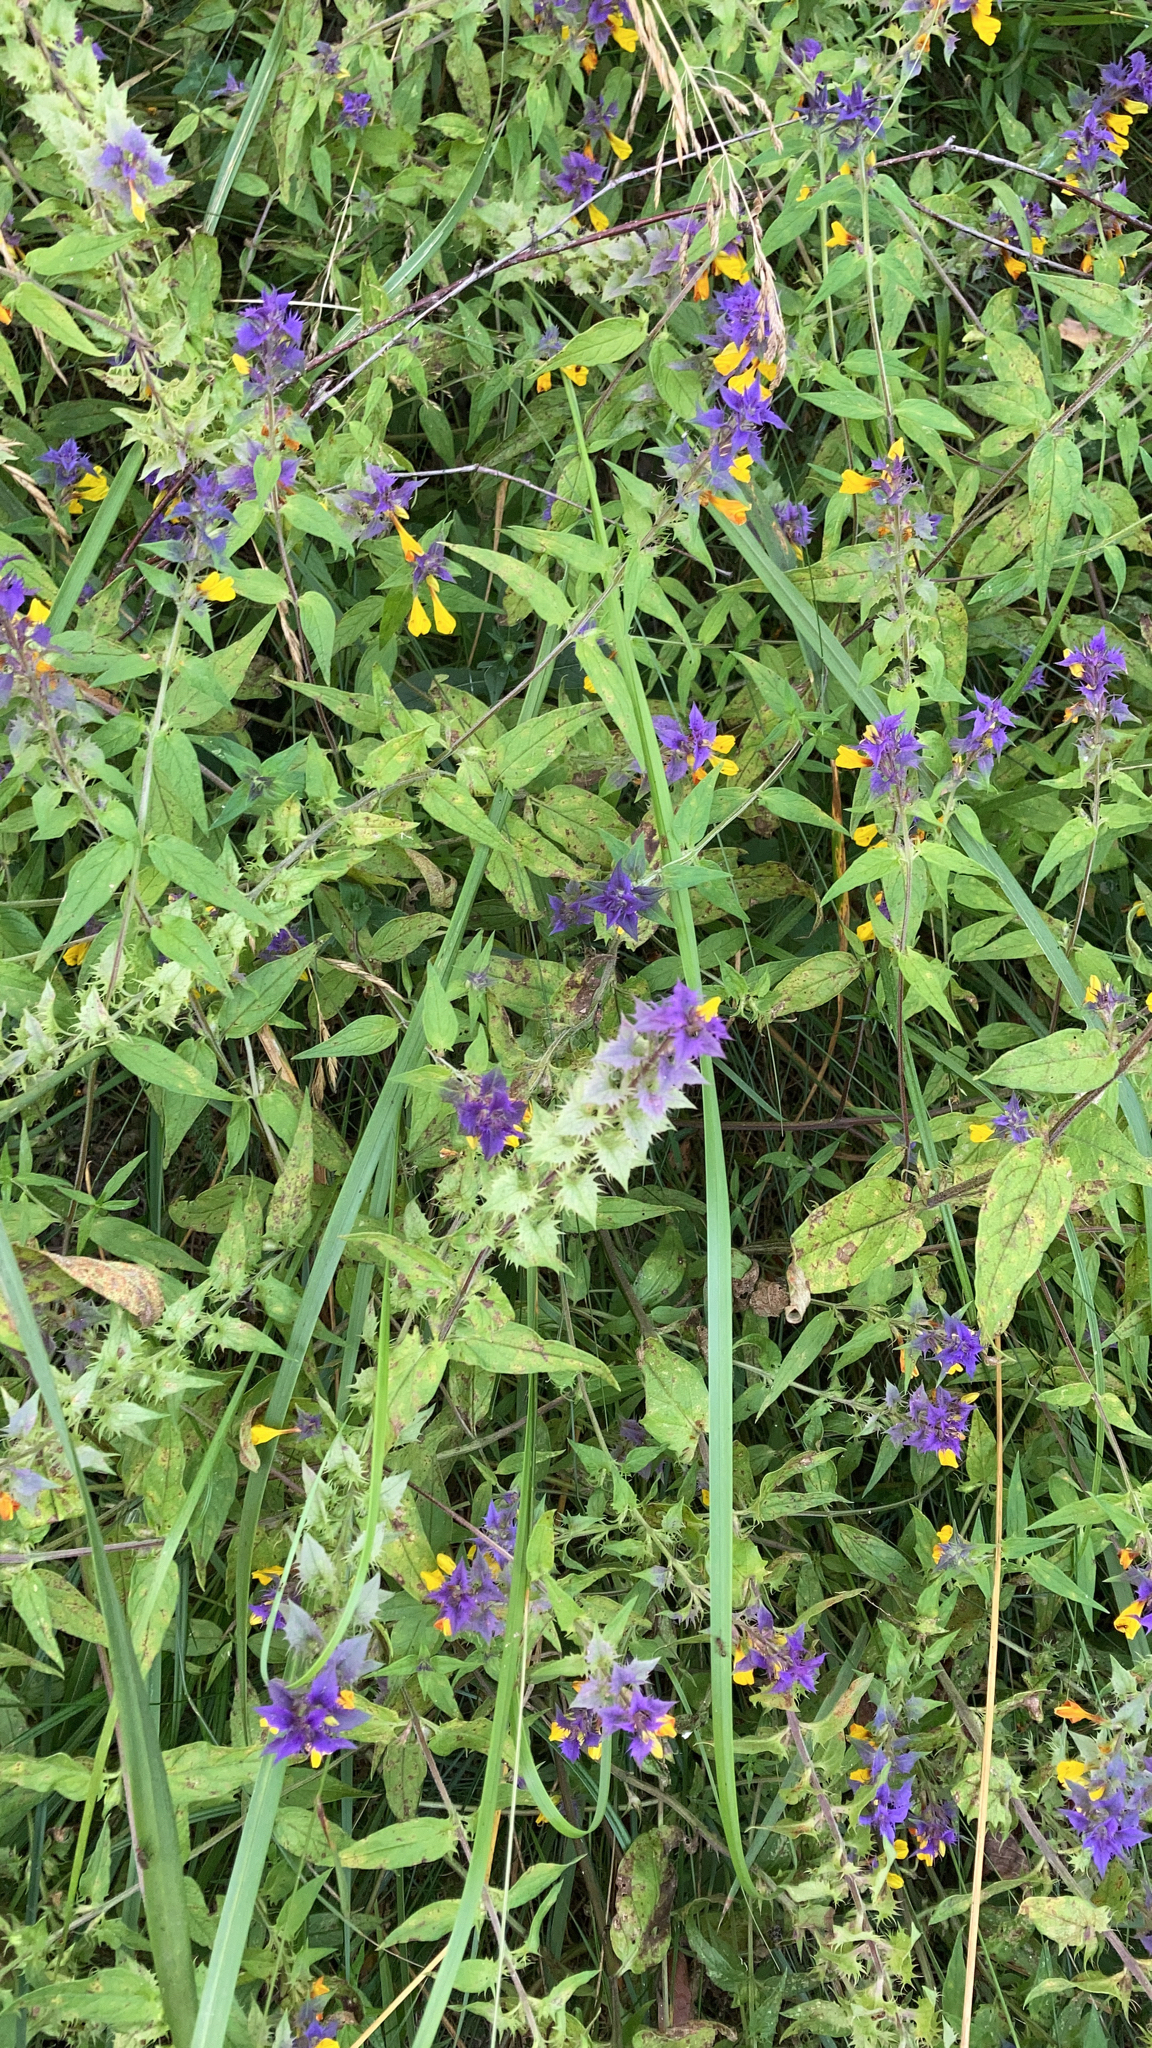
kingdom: Plantae
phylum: Tracheophyta
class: Magnoliopsida
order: Lamiales
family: Orobanchaceae
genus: Melampyrum
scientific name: Melampyrum nemorosum
